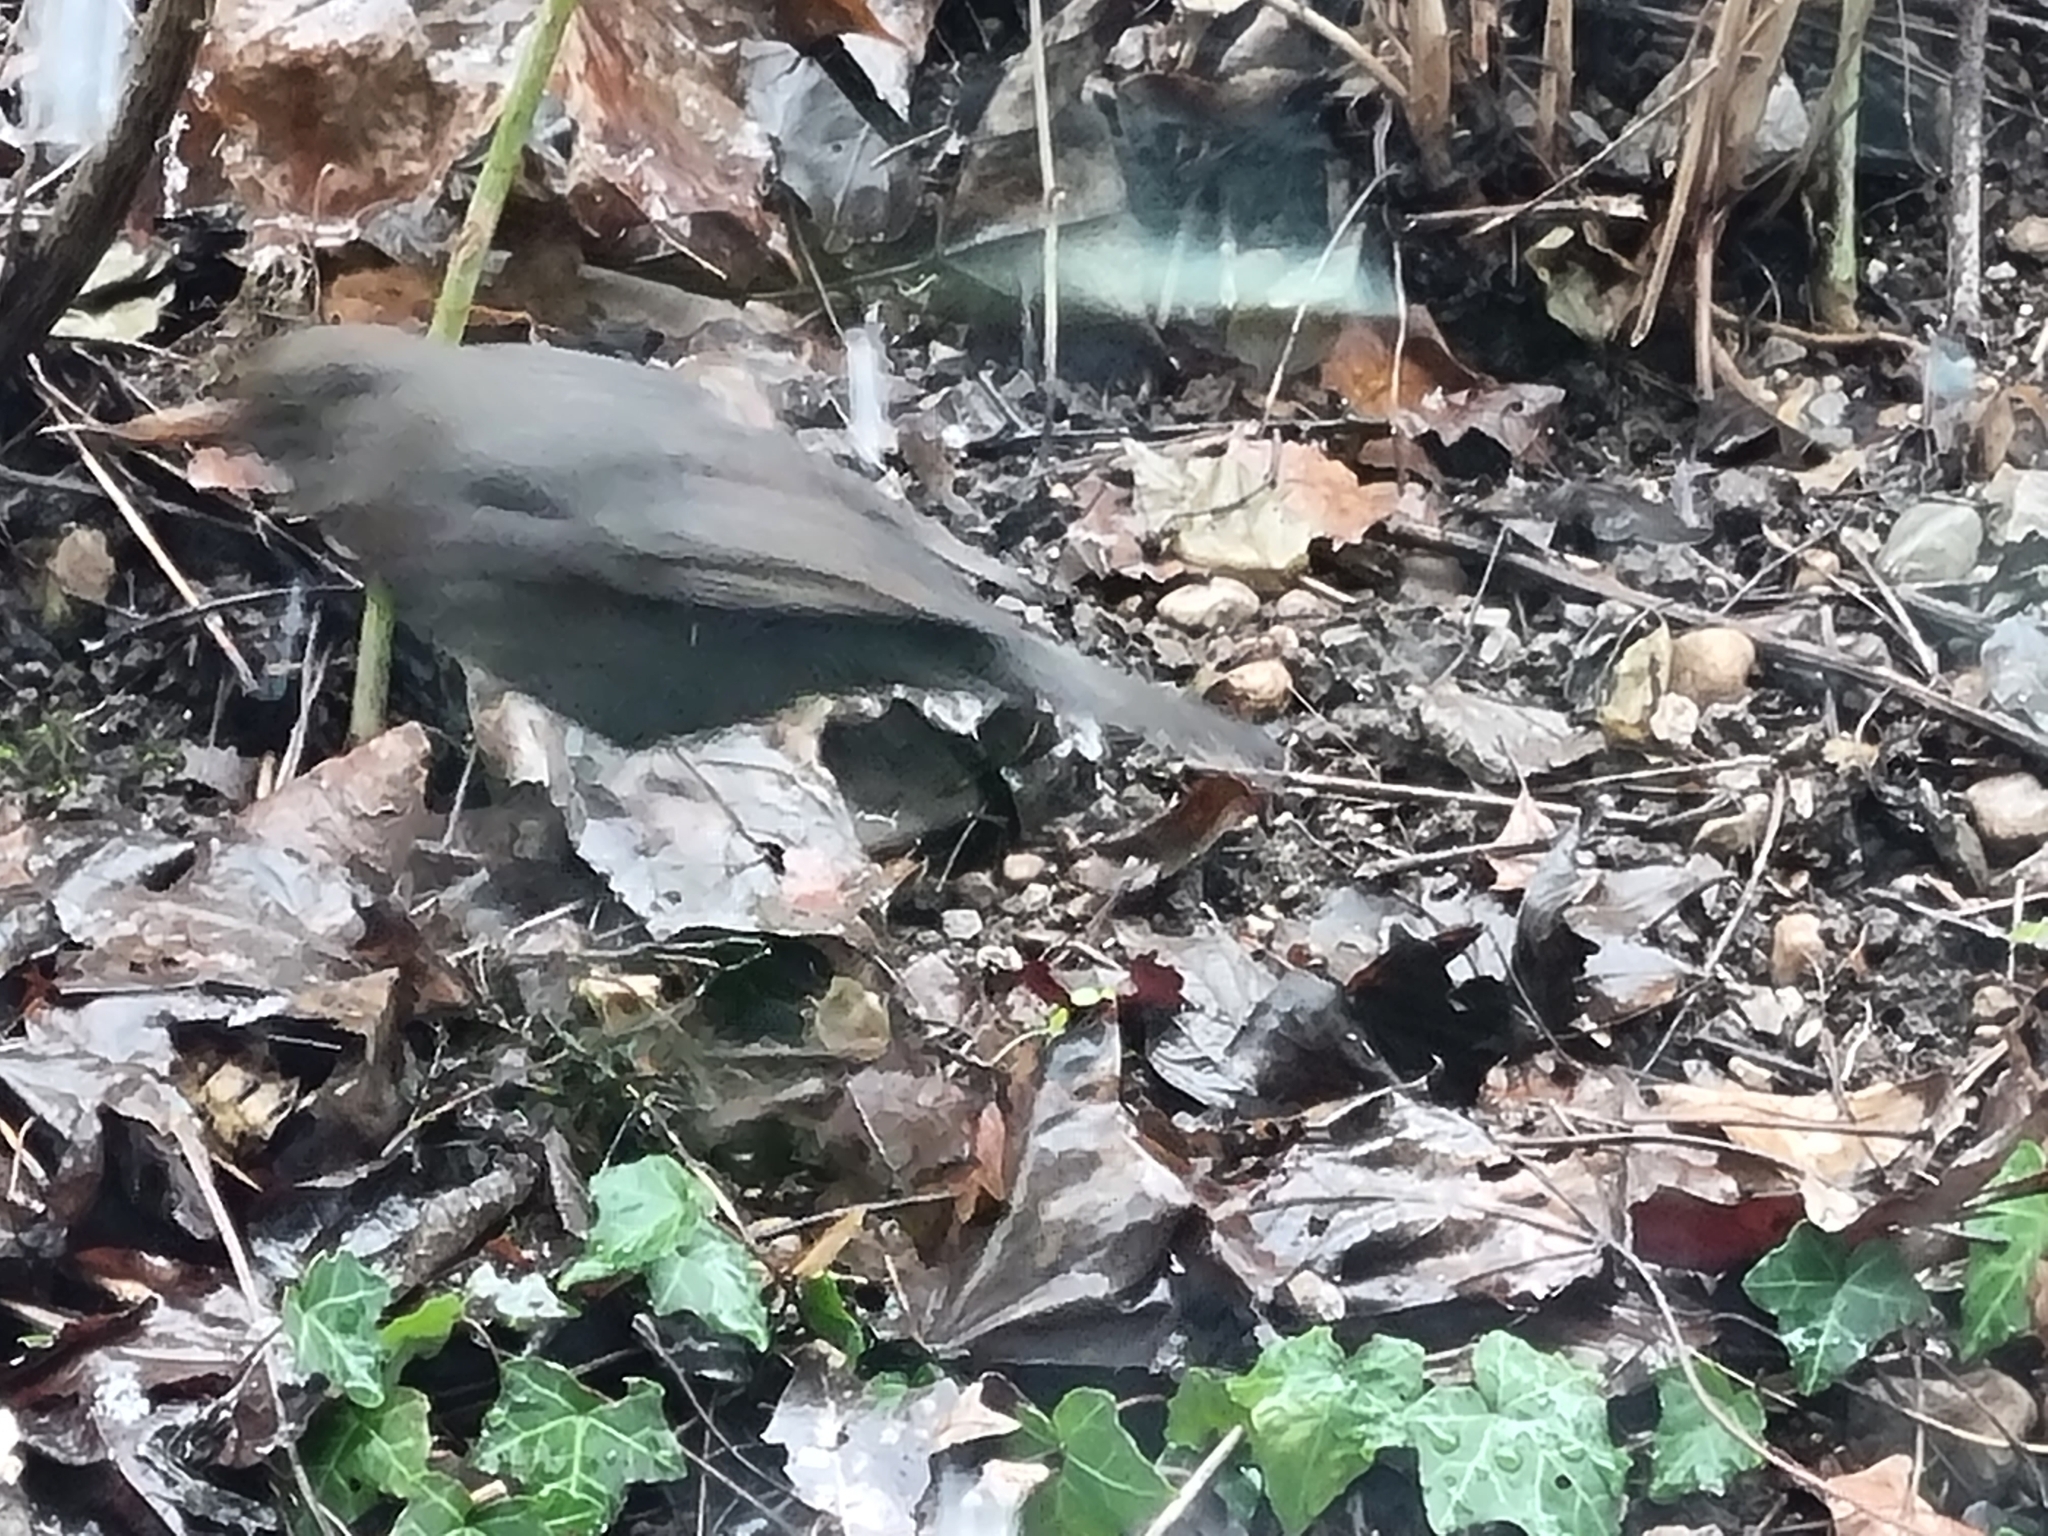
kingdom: Animalia
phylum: Chordata
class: Aves
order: Passeriformes
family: Turdidae
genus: Turdus
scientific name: Turdus merula
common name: Common blackbird
